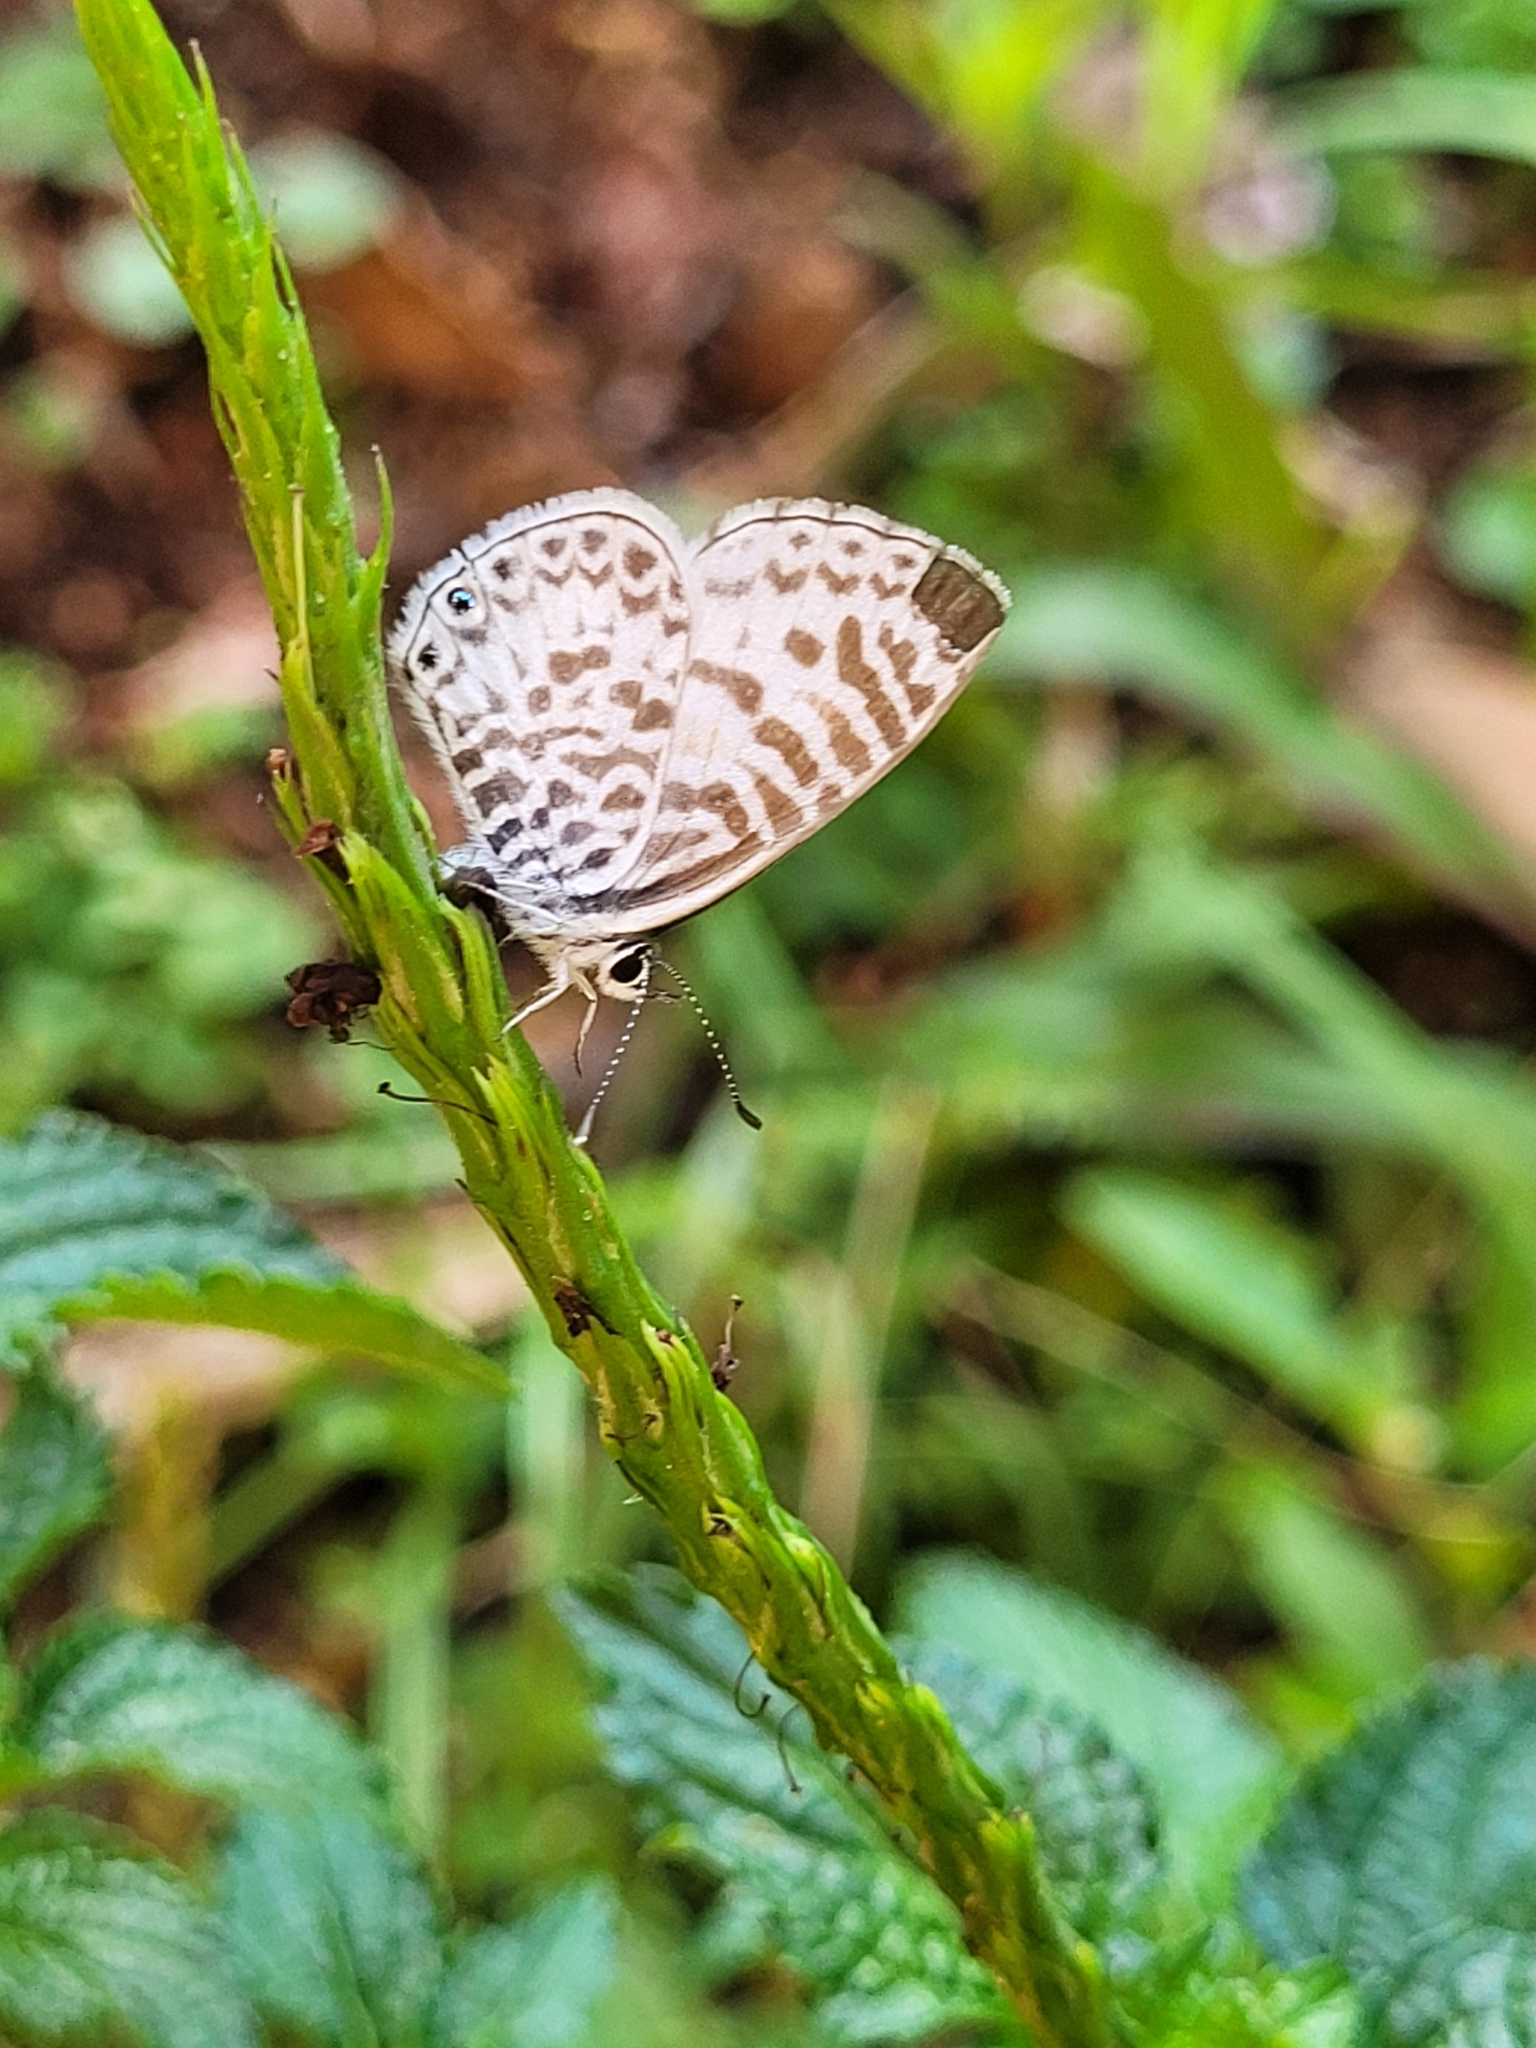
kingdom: Animalia
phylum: Arthropoda
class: Insecta
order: Lepidoptera
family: Lycaenidae
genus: Leptotes
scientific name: Leptotes cassius
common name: Cassius blue
